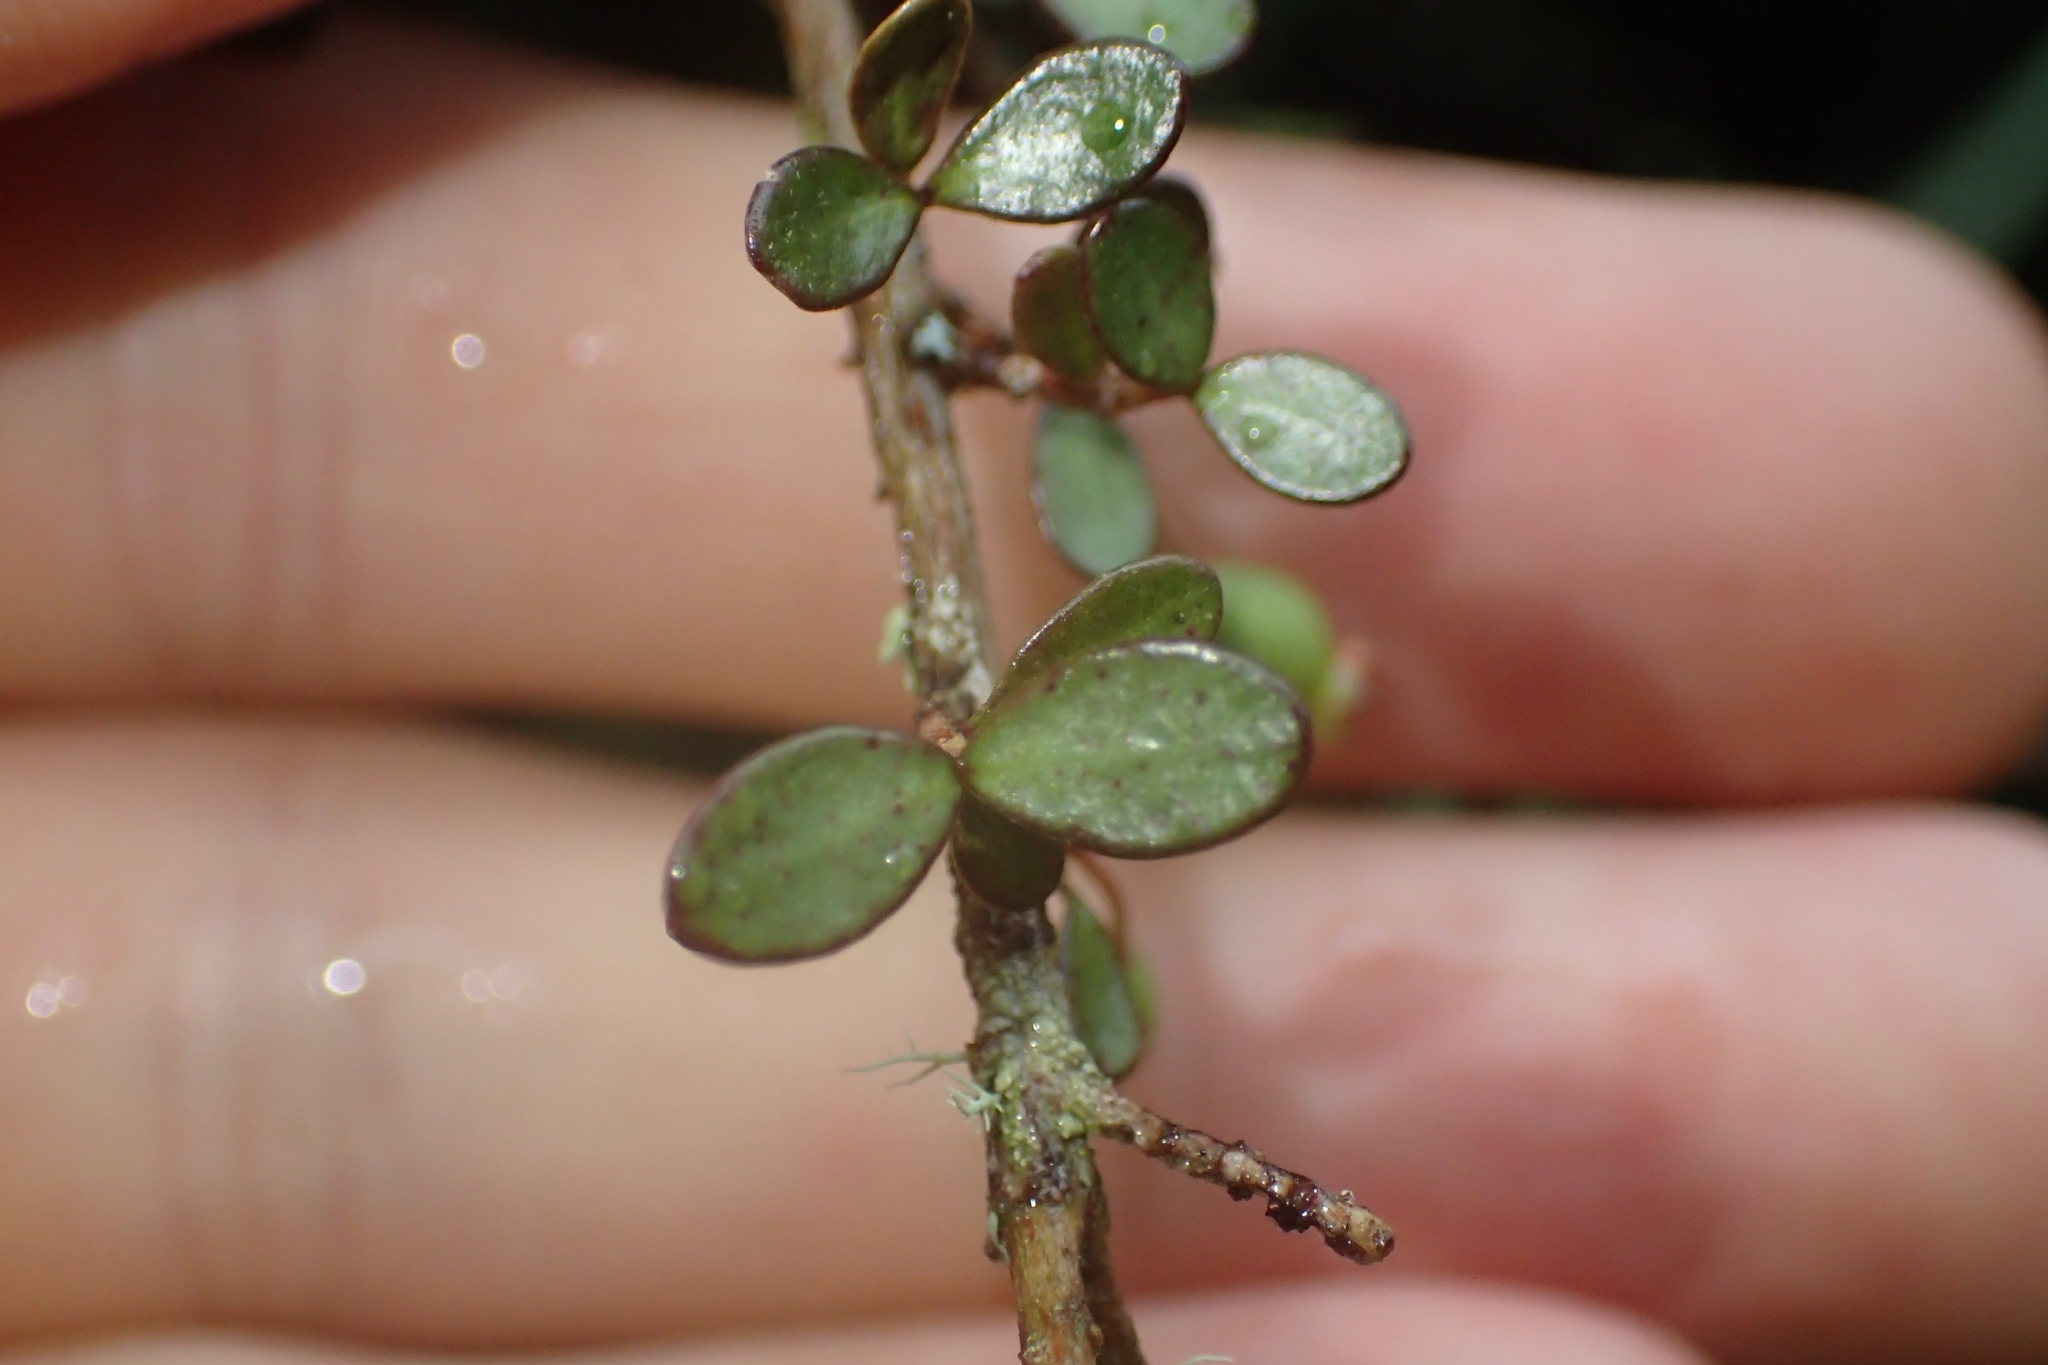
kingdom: Plantae
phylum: Tracheophyta
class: Magnoliopsida
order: Myrtales
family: Myrtaceae
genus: Neomyrtus
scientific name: Neomyrtus pedunculata
